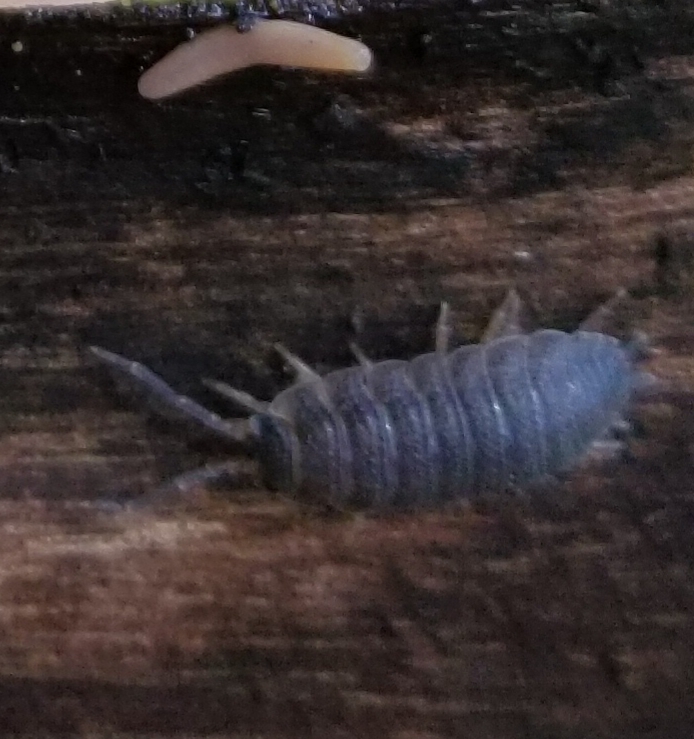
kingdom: Animalia
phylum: Arthropoda
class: Malacostraca
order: Isopoda
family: Porcellionidae
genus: Porcellio
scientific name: Porcellio scaber
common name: Common rough woodlouse
